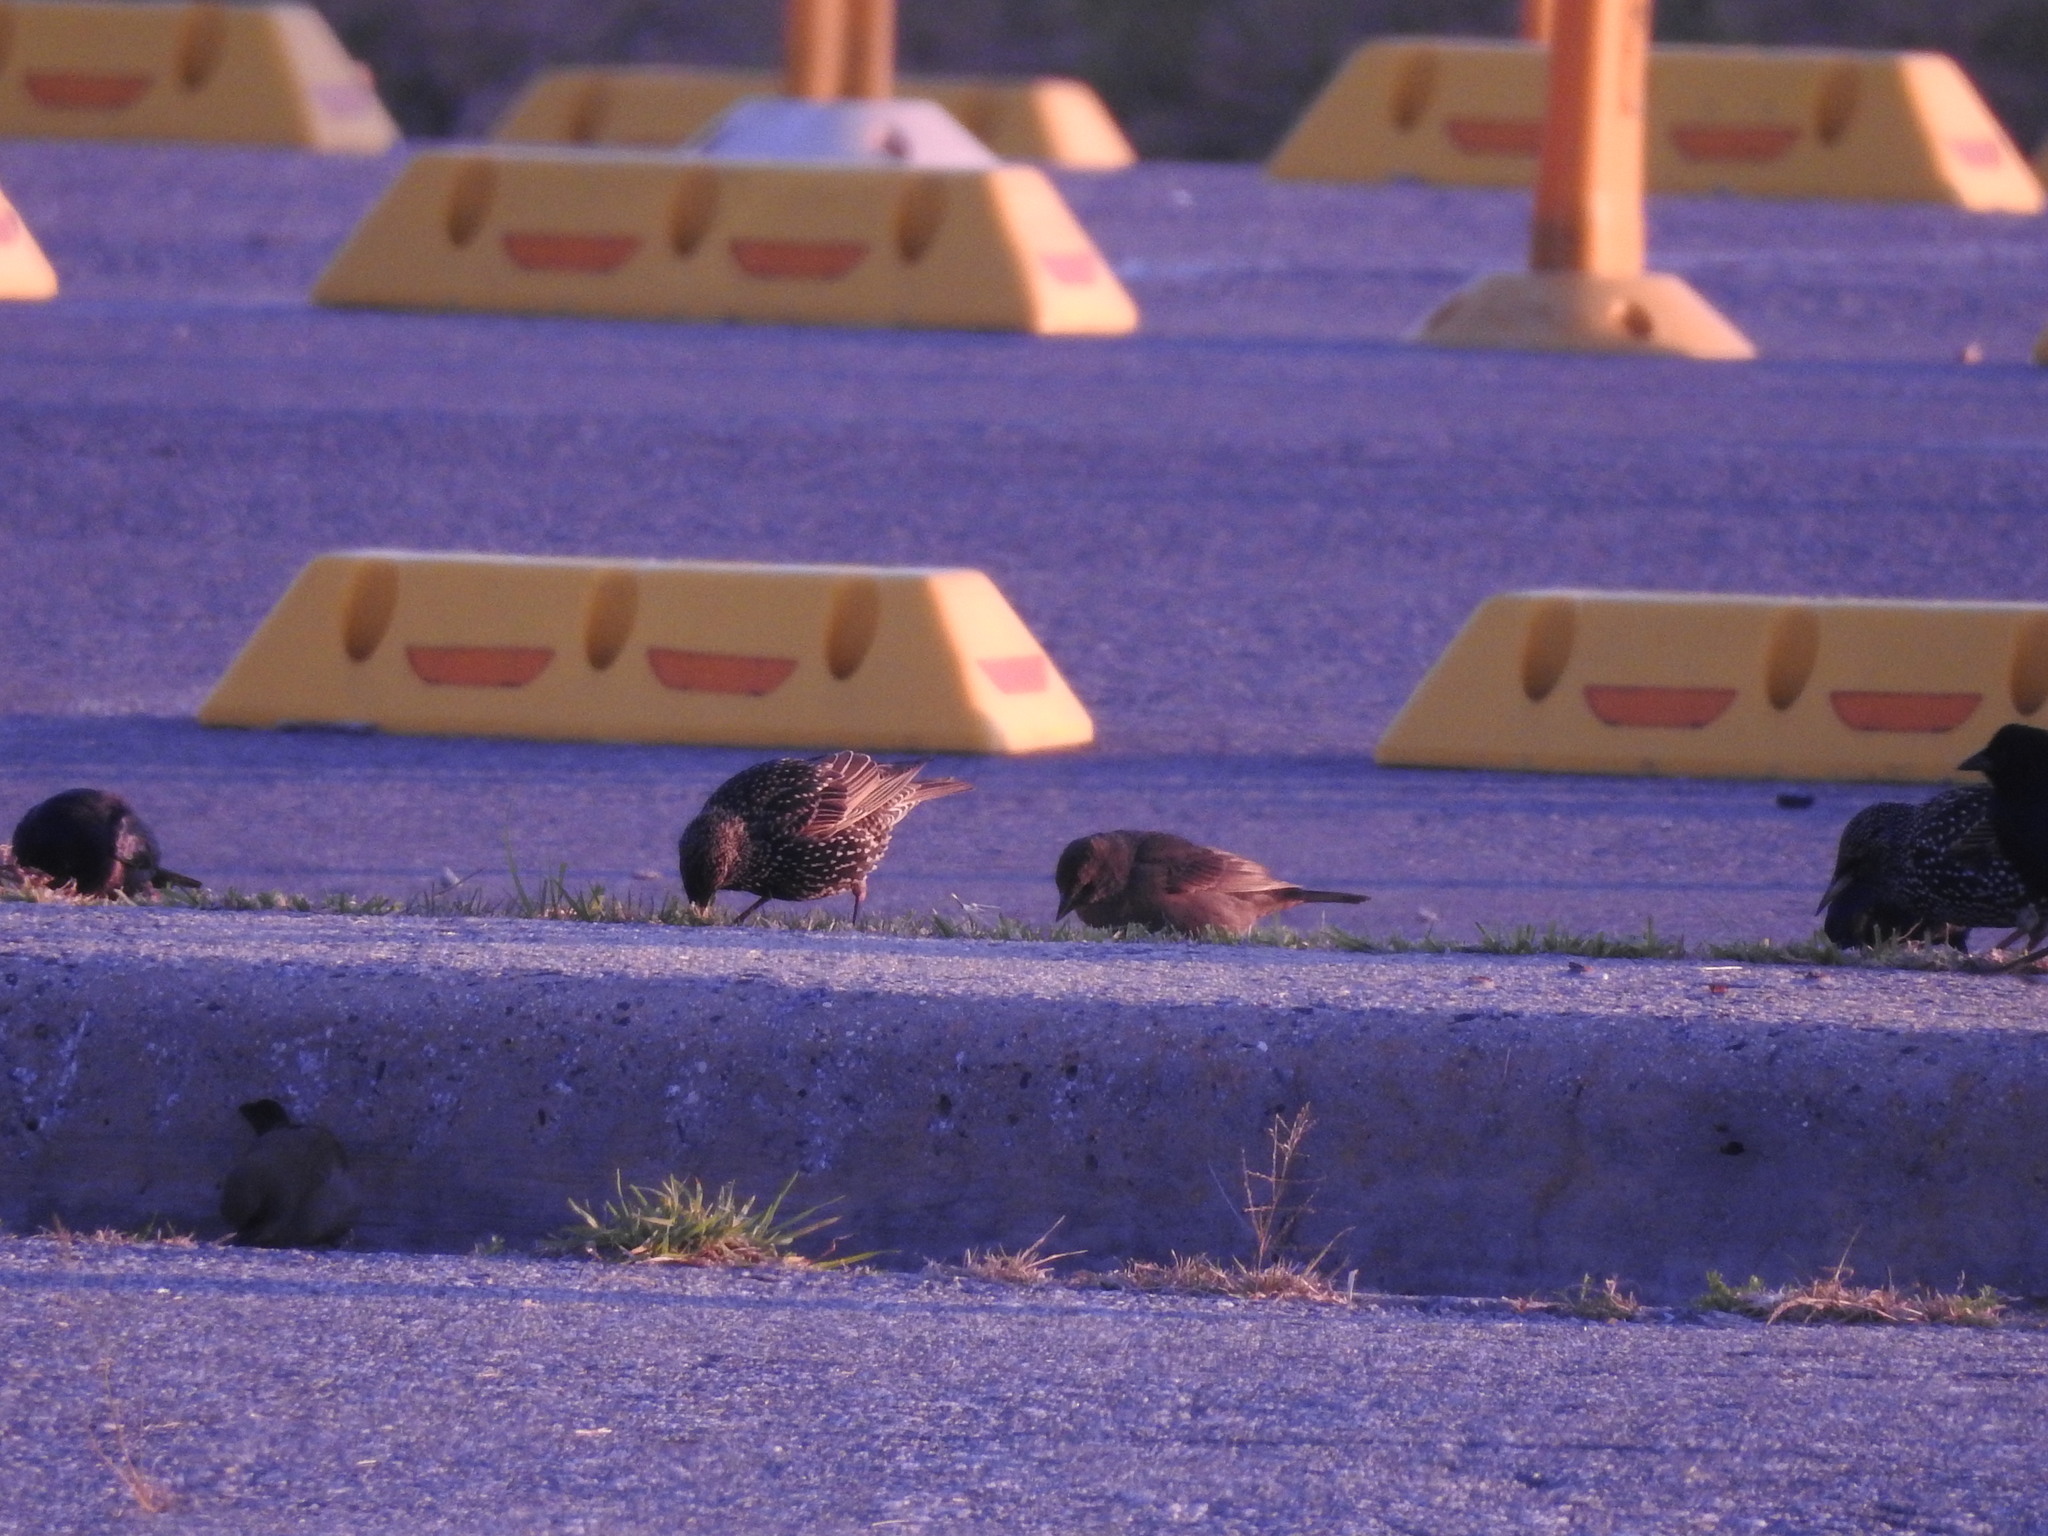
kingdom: Animalia
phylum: Chordata
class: Aves
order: Passeriformes
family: Icteridae
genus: Molothrus
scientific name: Molothrus bonariensis
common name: Shiny cowbird
